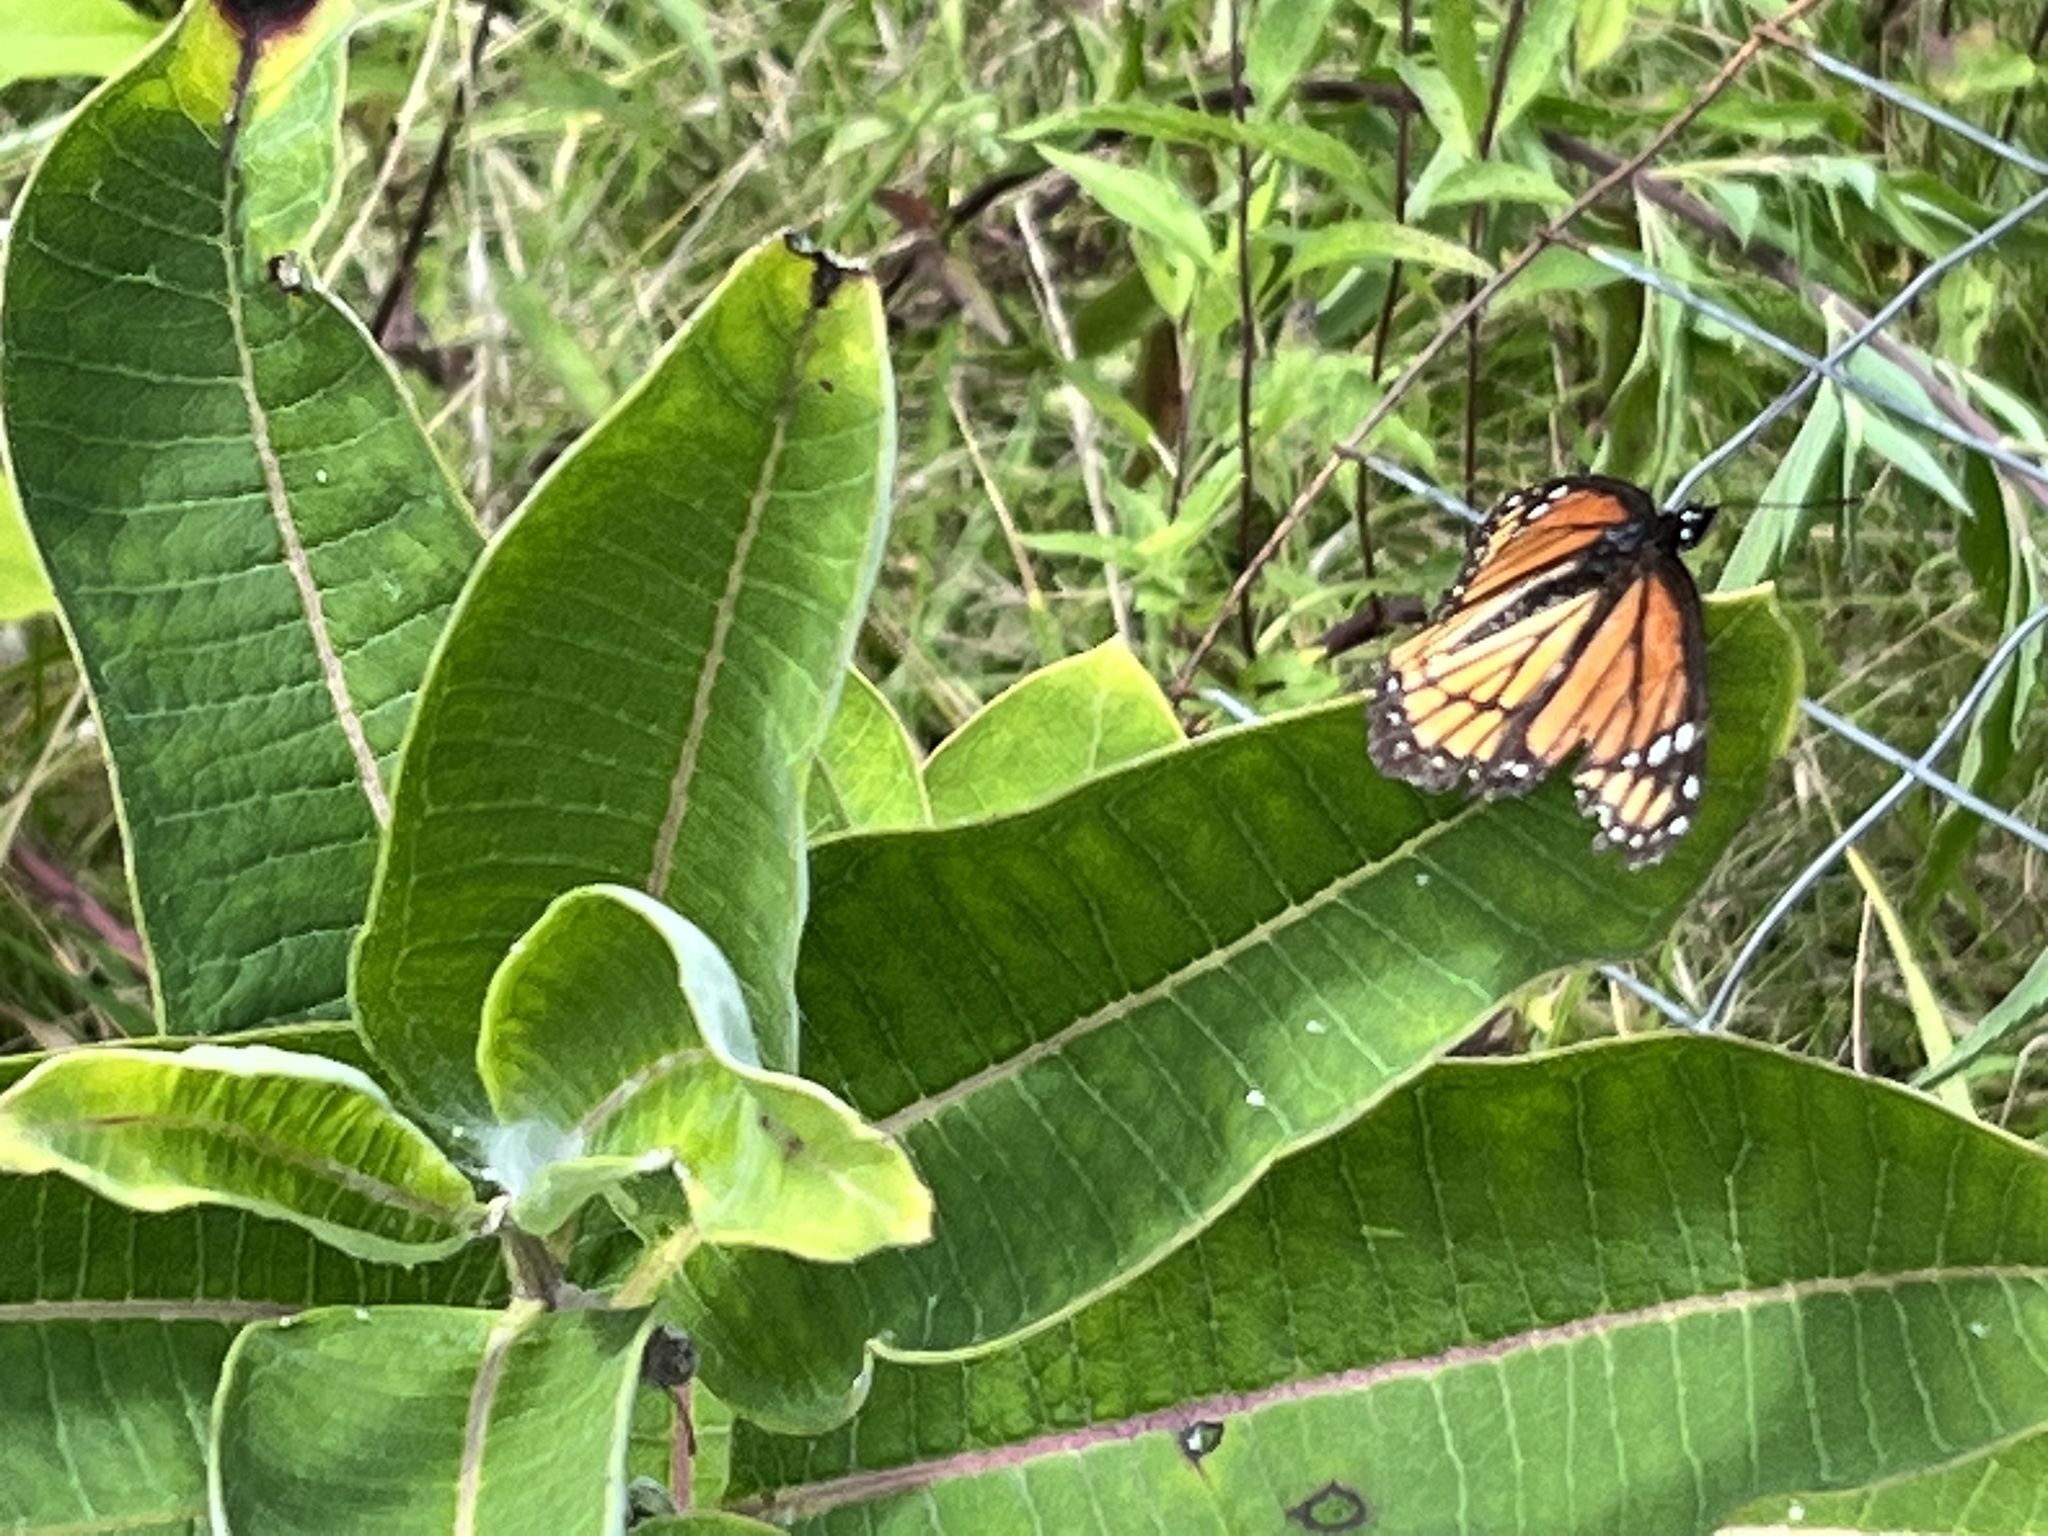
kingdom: Animalia
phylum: Arthropoda
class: Insecta
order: Lepidoptera
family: Nymphalidae
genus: Limenitis
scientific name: Limenitis archippus
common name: Viceroy
